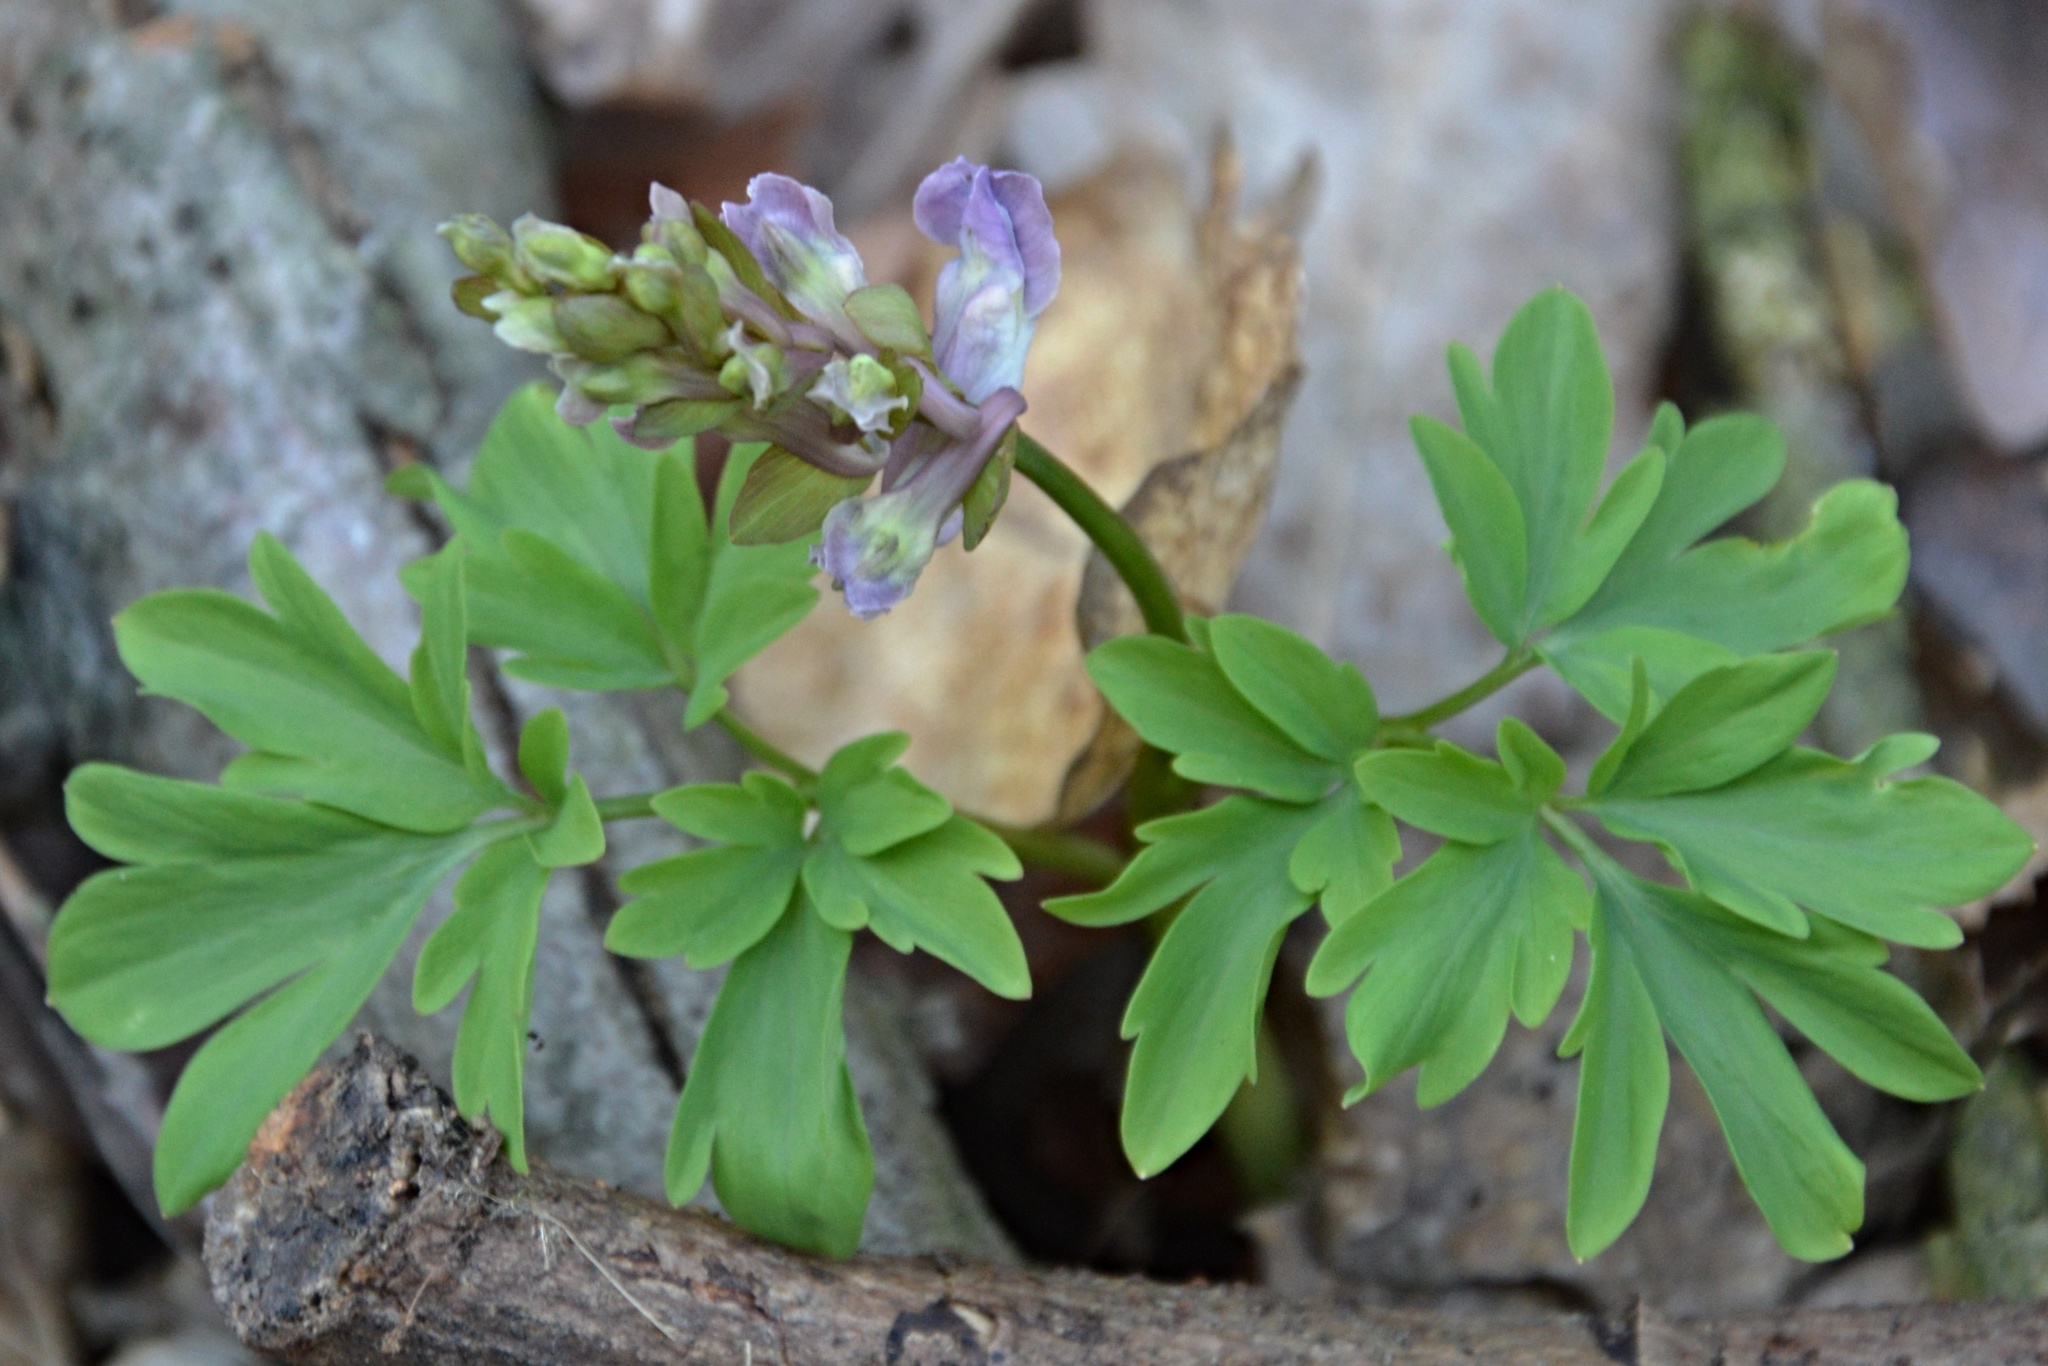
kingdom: Plantae
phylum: Tracheophyta
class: Magnoliopsida
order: Ranunculales
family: Papaveraceae
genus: Corydalis
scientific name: Corydalis cava
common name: Hollowroot
